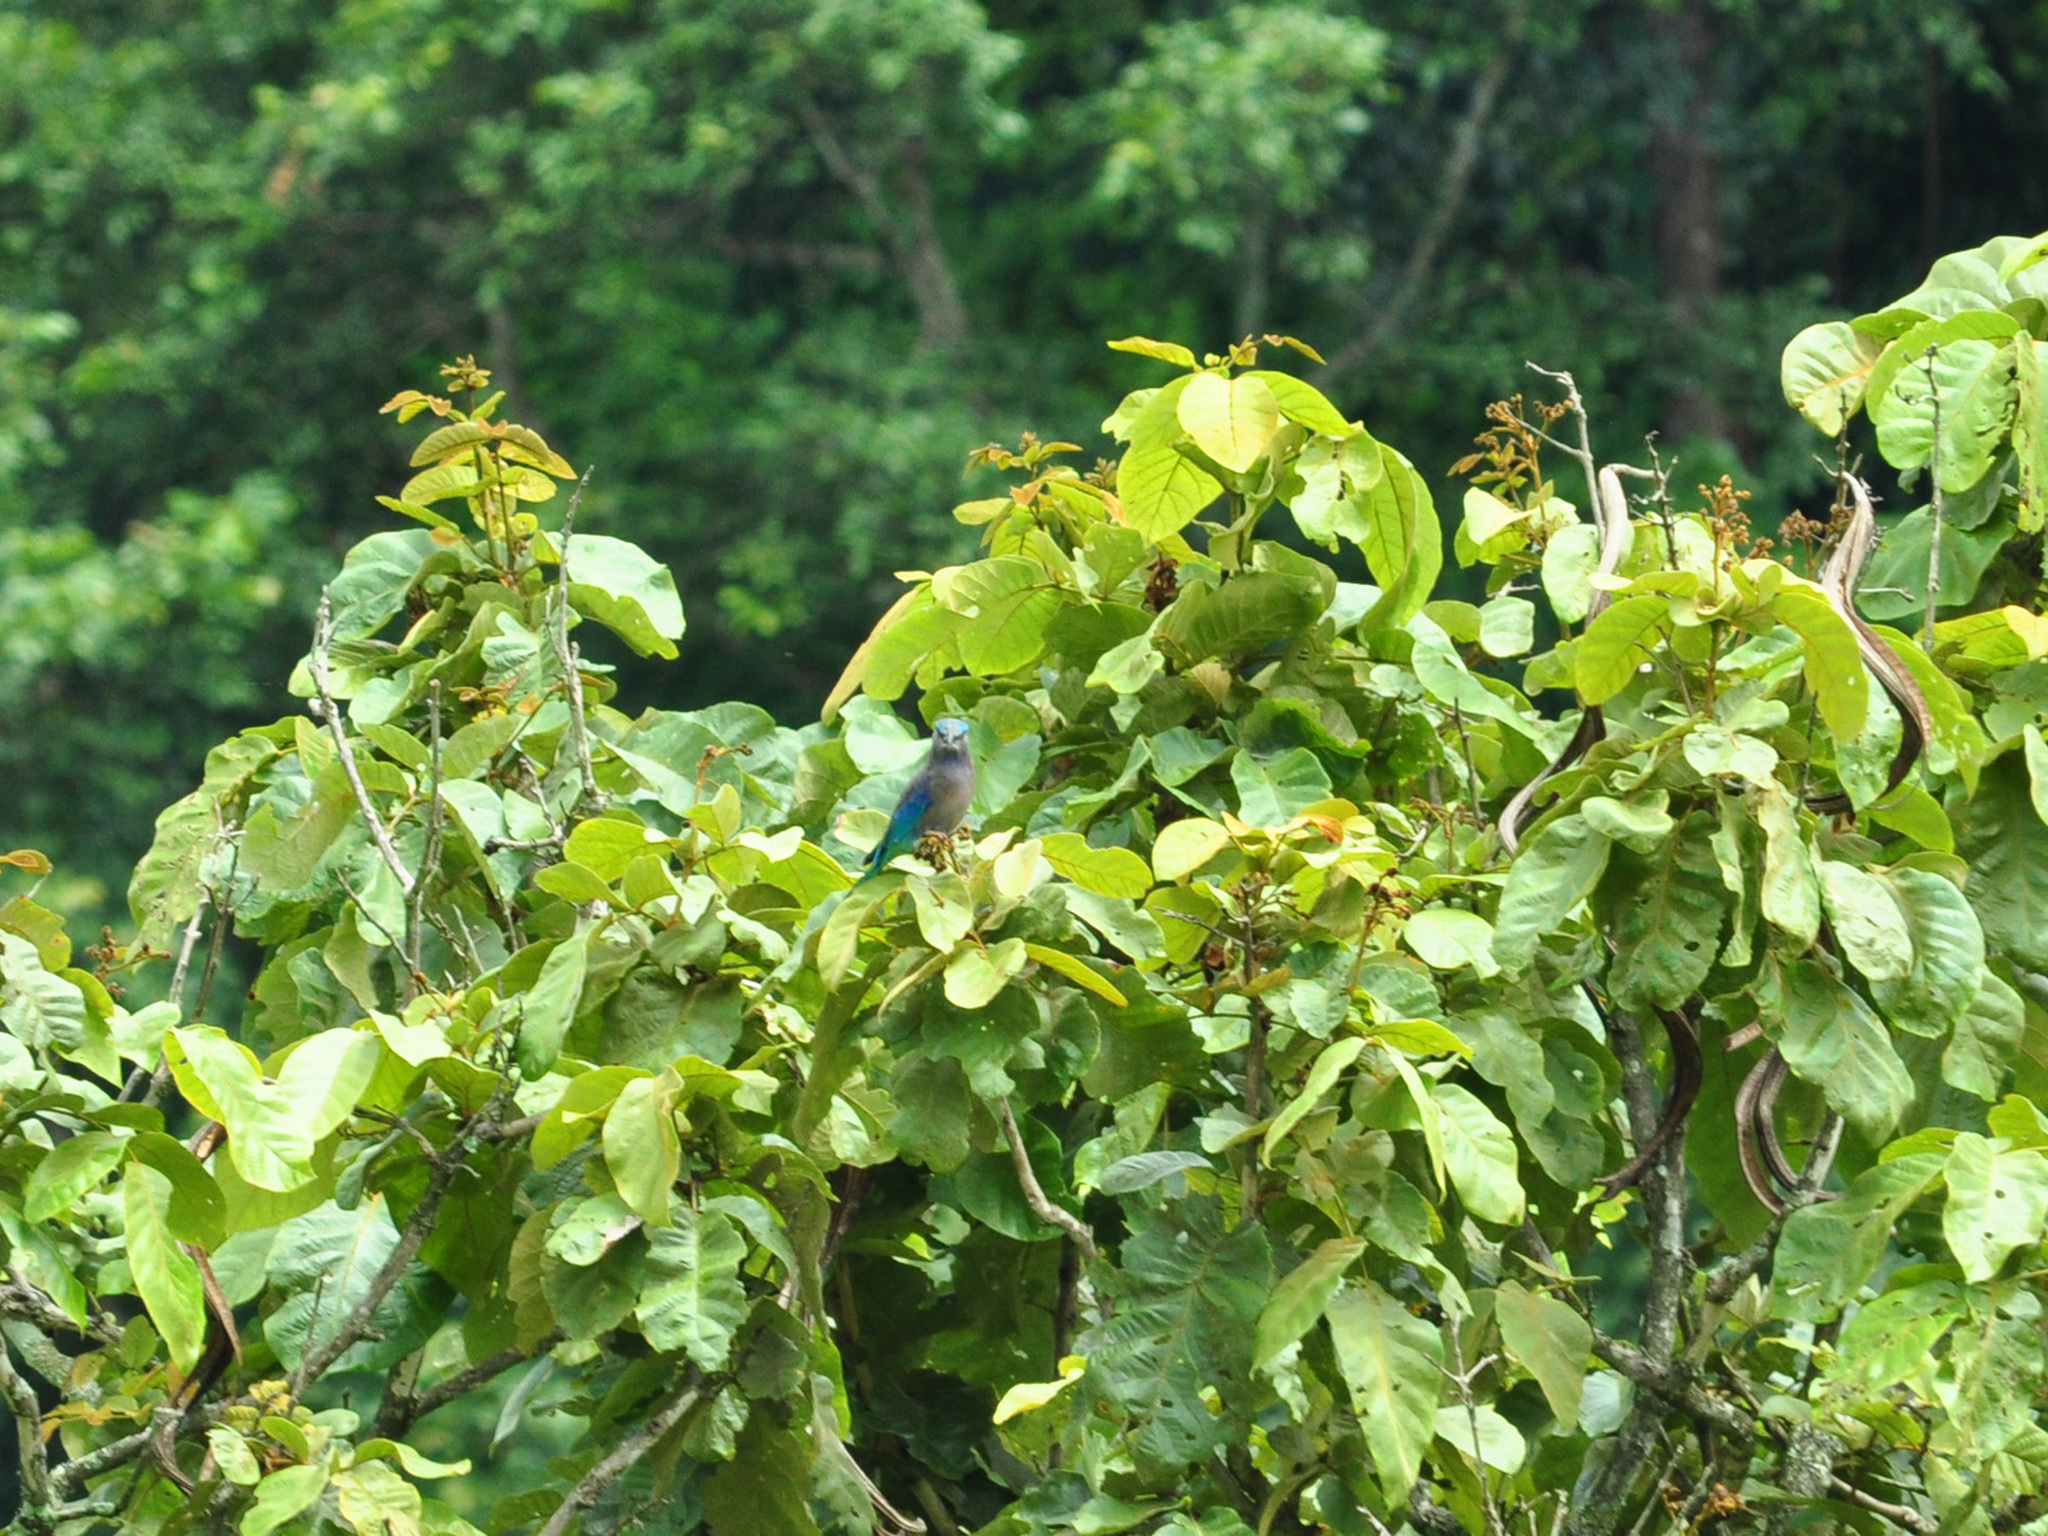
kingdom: Animalia
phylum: Chordata
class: Aves
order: Coraciiformes
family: Coraciidae
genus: Coracias
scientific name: Coracias affinis
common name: Indochinese roller
